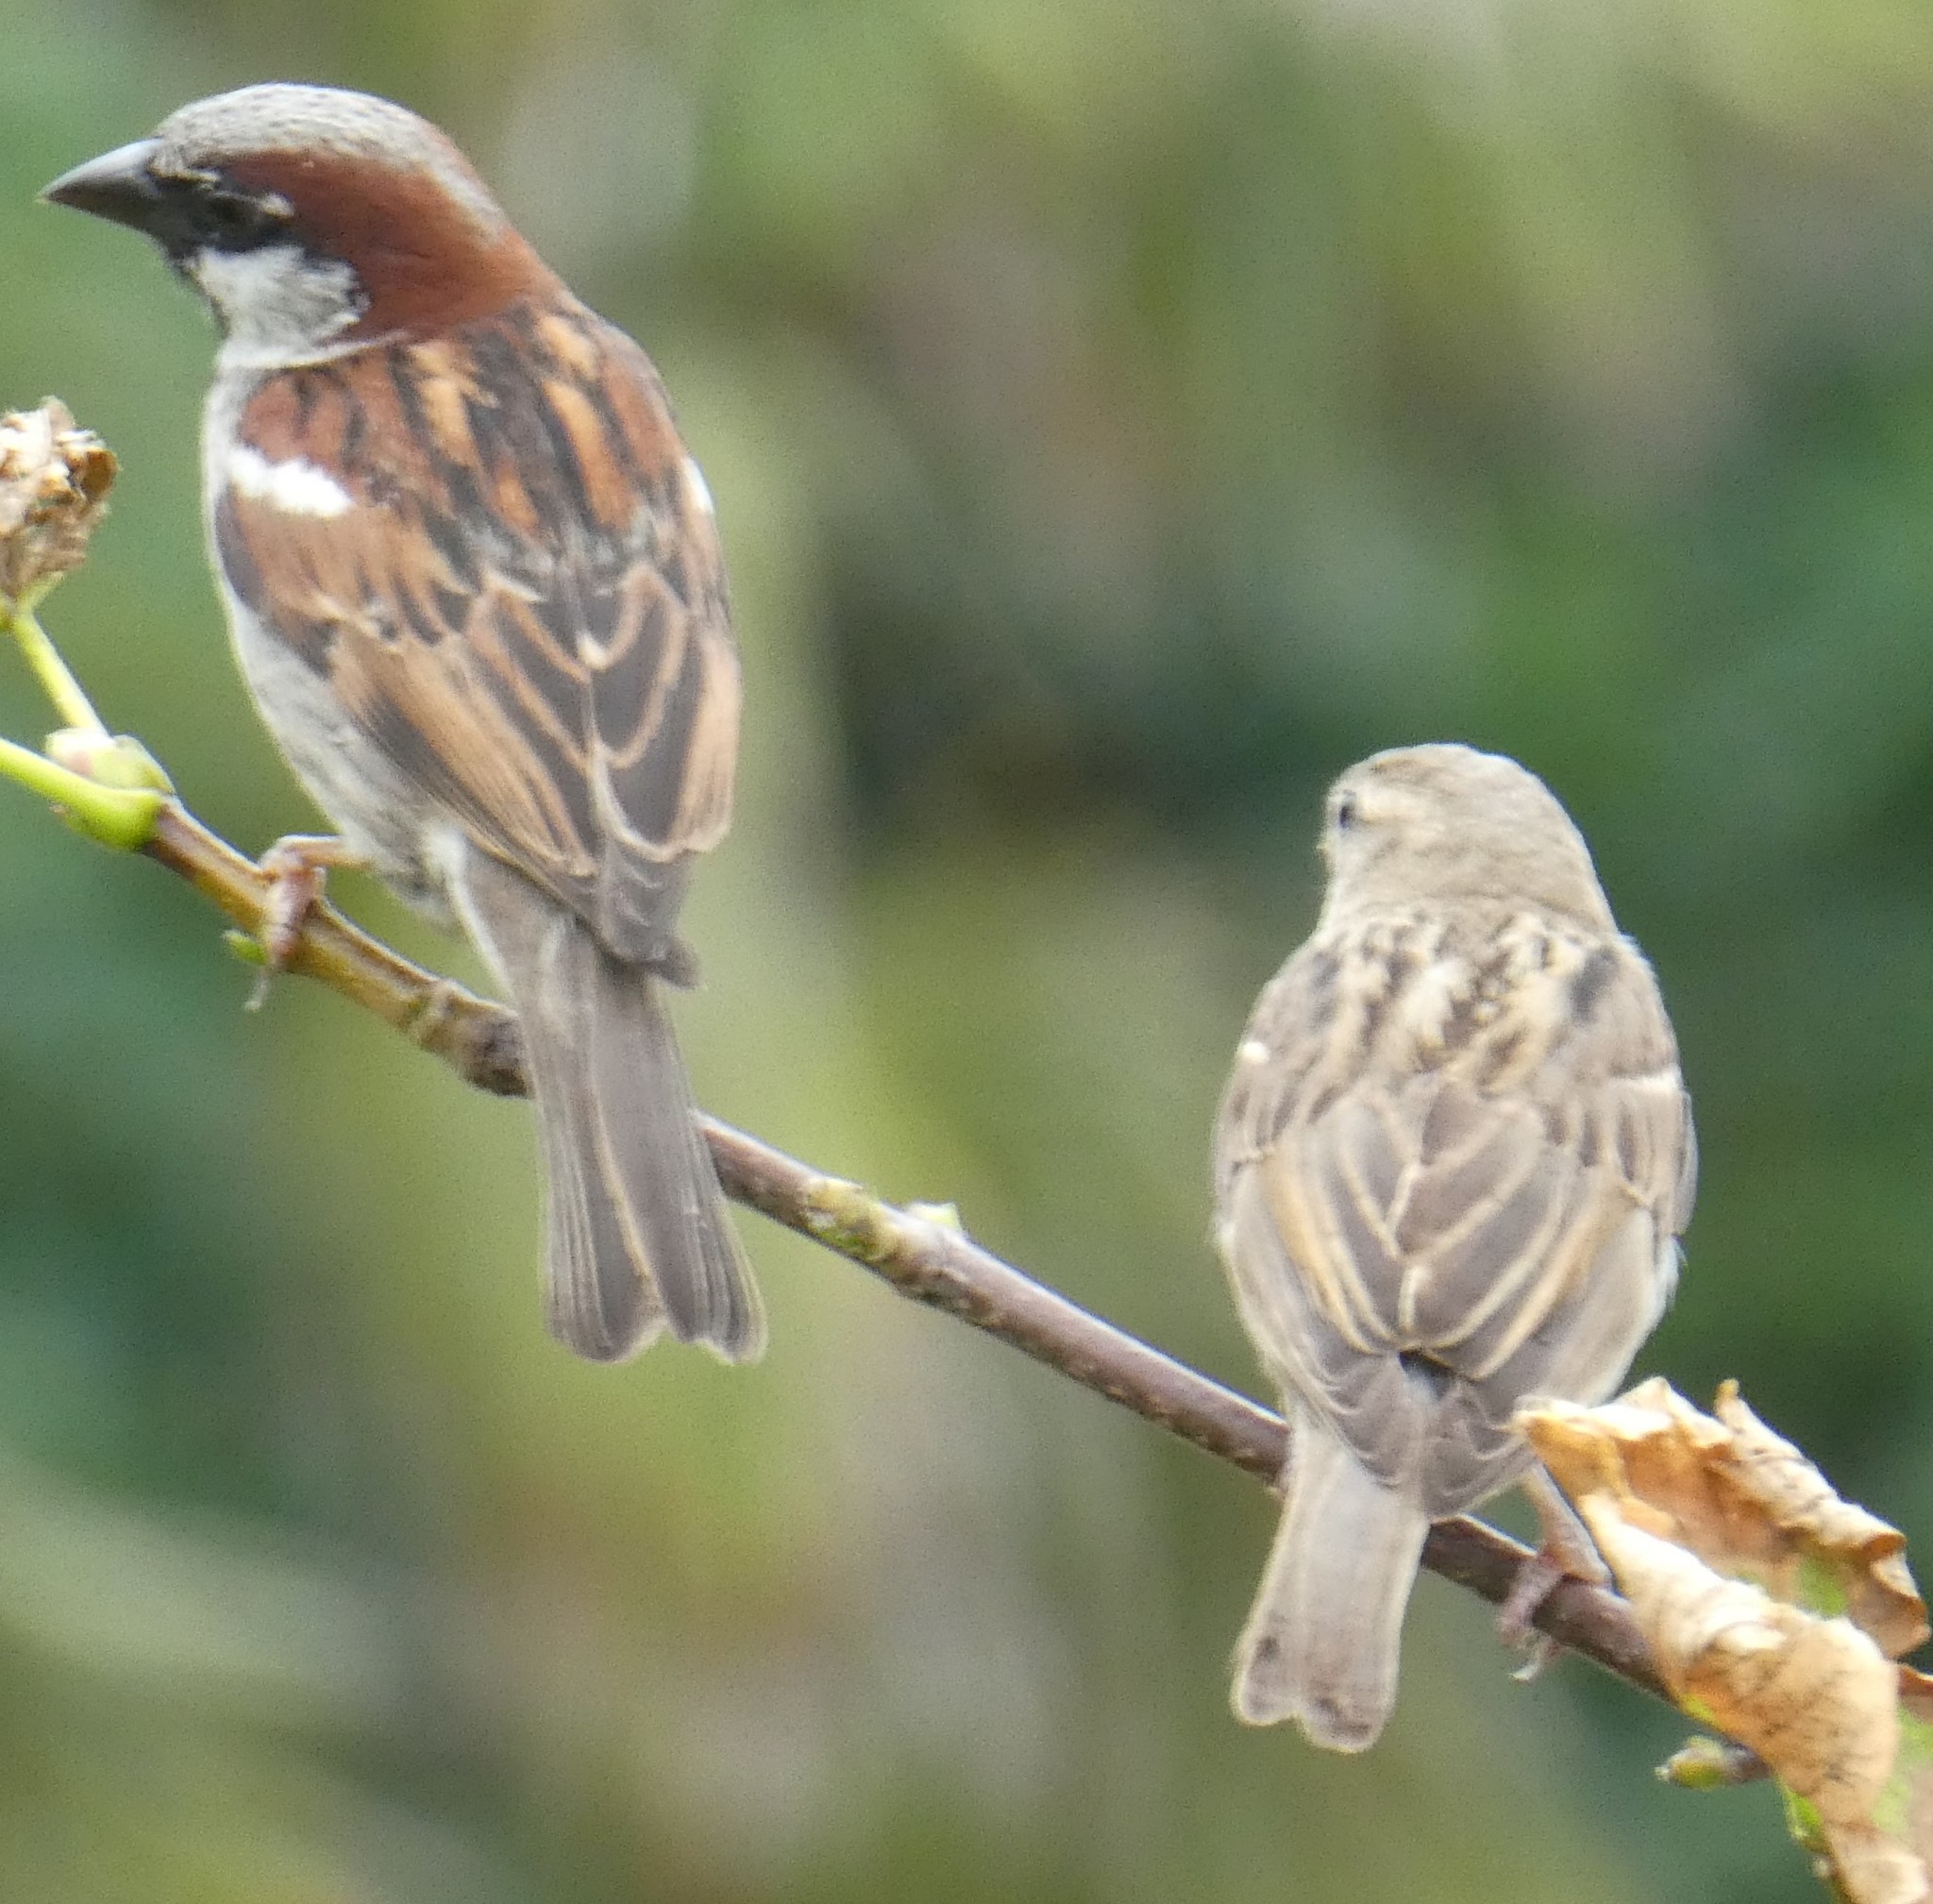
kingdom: Animalia
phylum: Chordata
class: Aves
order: Passeriformes
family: Passeridae
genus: Passer
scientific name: Passer domesticus
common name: House sparrow
